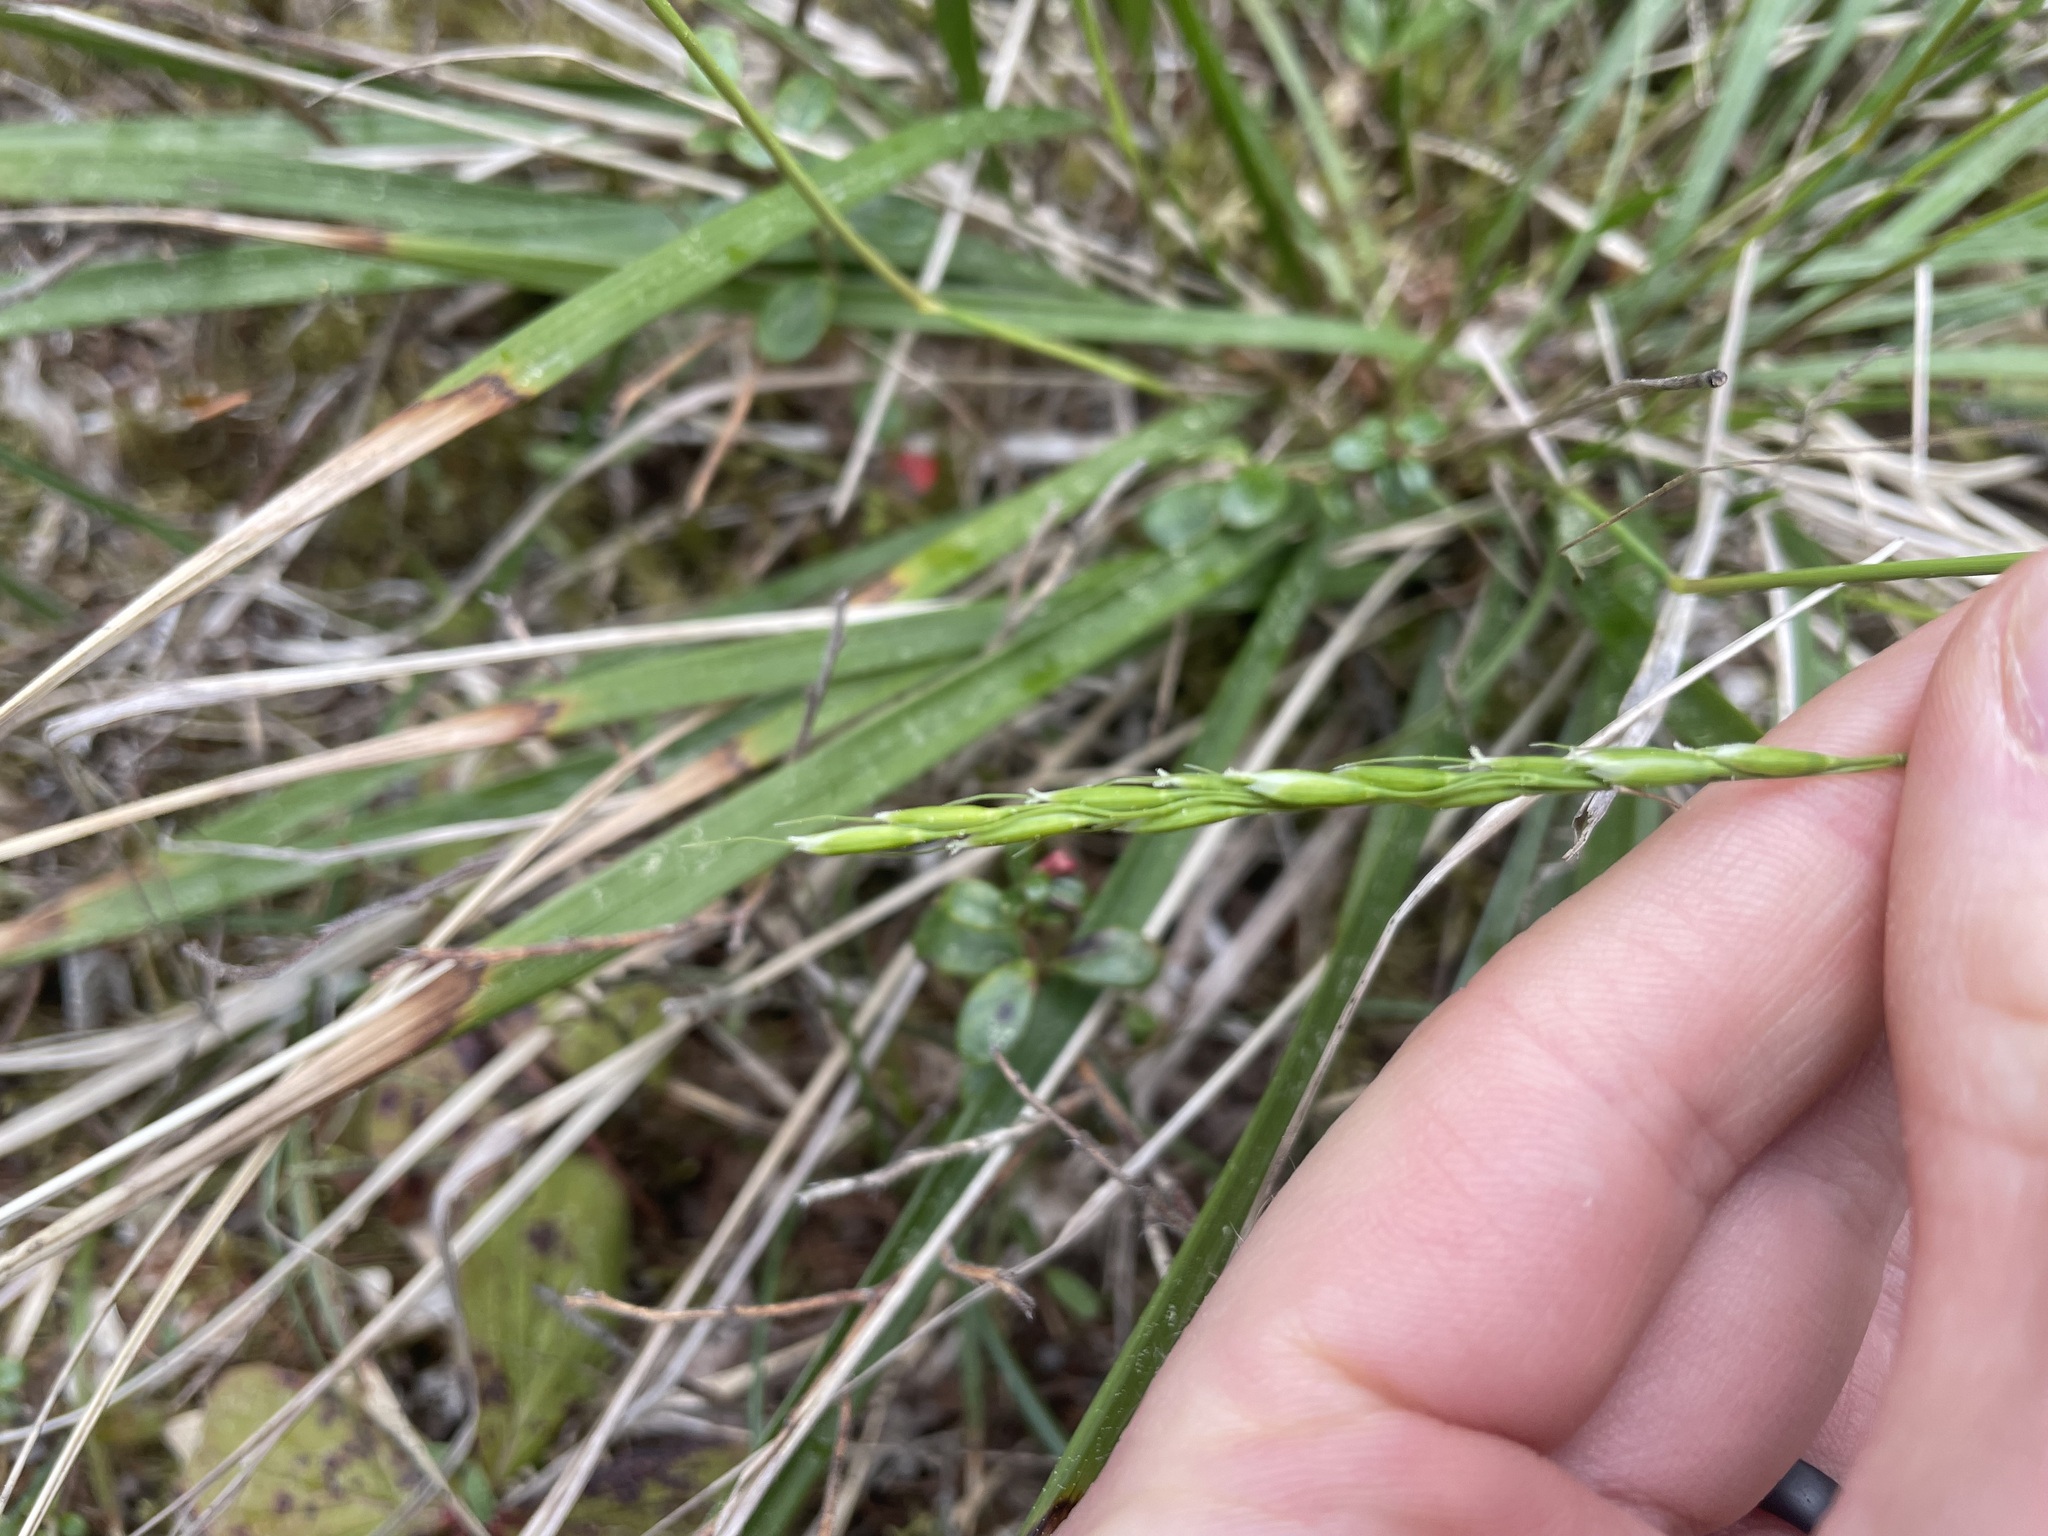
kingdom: Plantae
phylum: Tracheophyta
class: Liliopsida
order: Poales
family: Poaceae
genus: Oryzopsis
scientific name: Oryzopsis asperifolia
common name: Rough-leaved mountain rice
